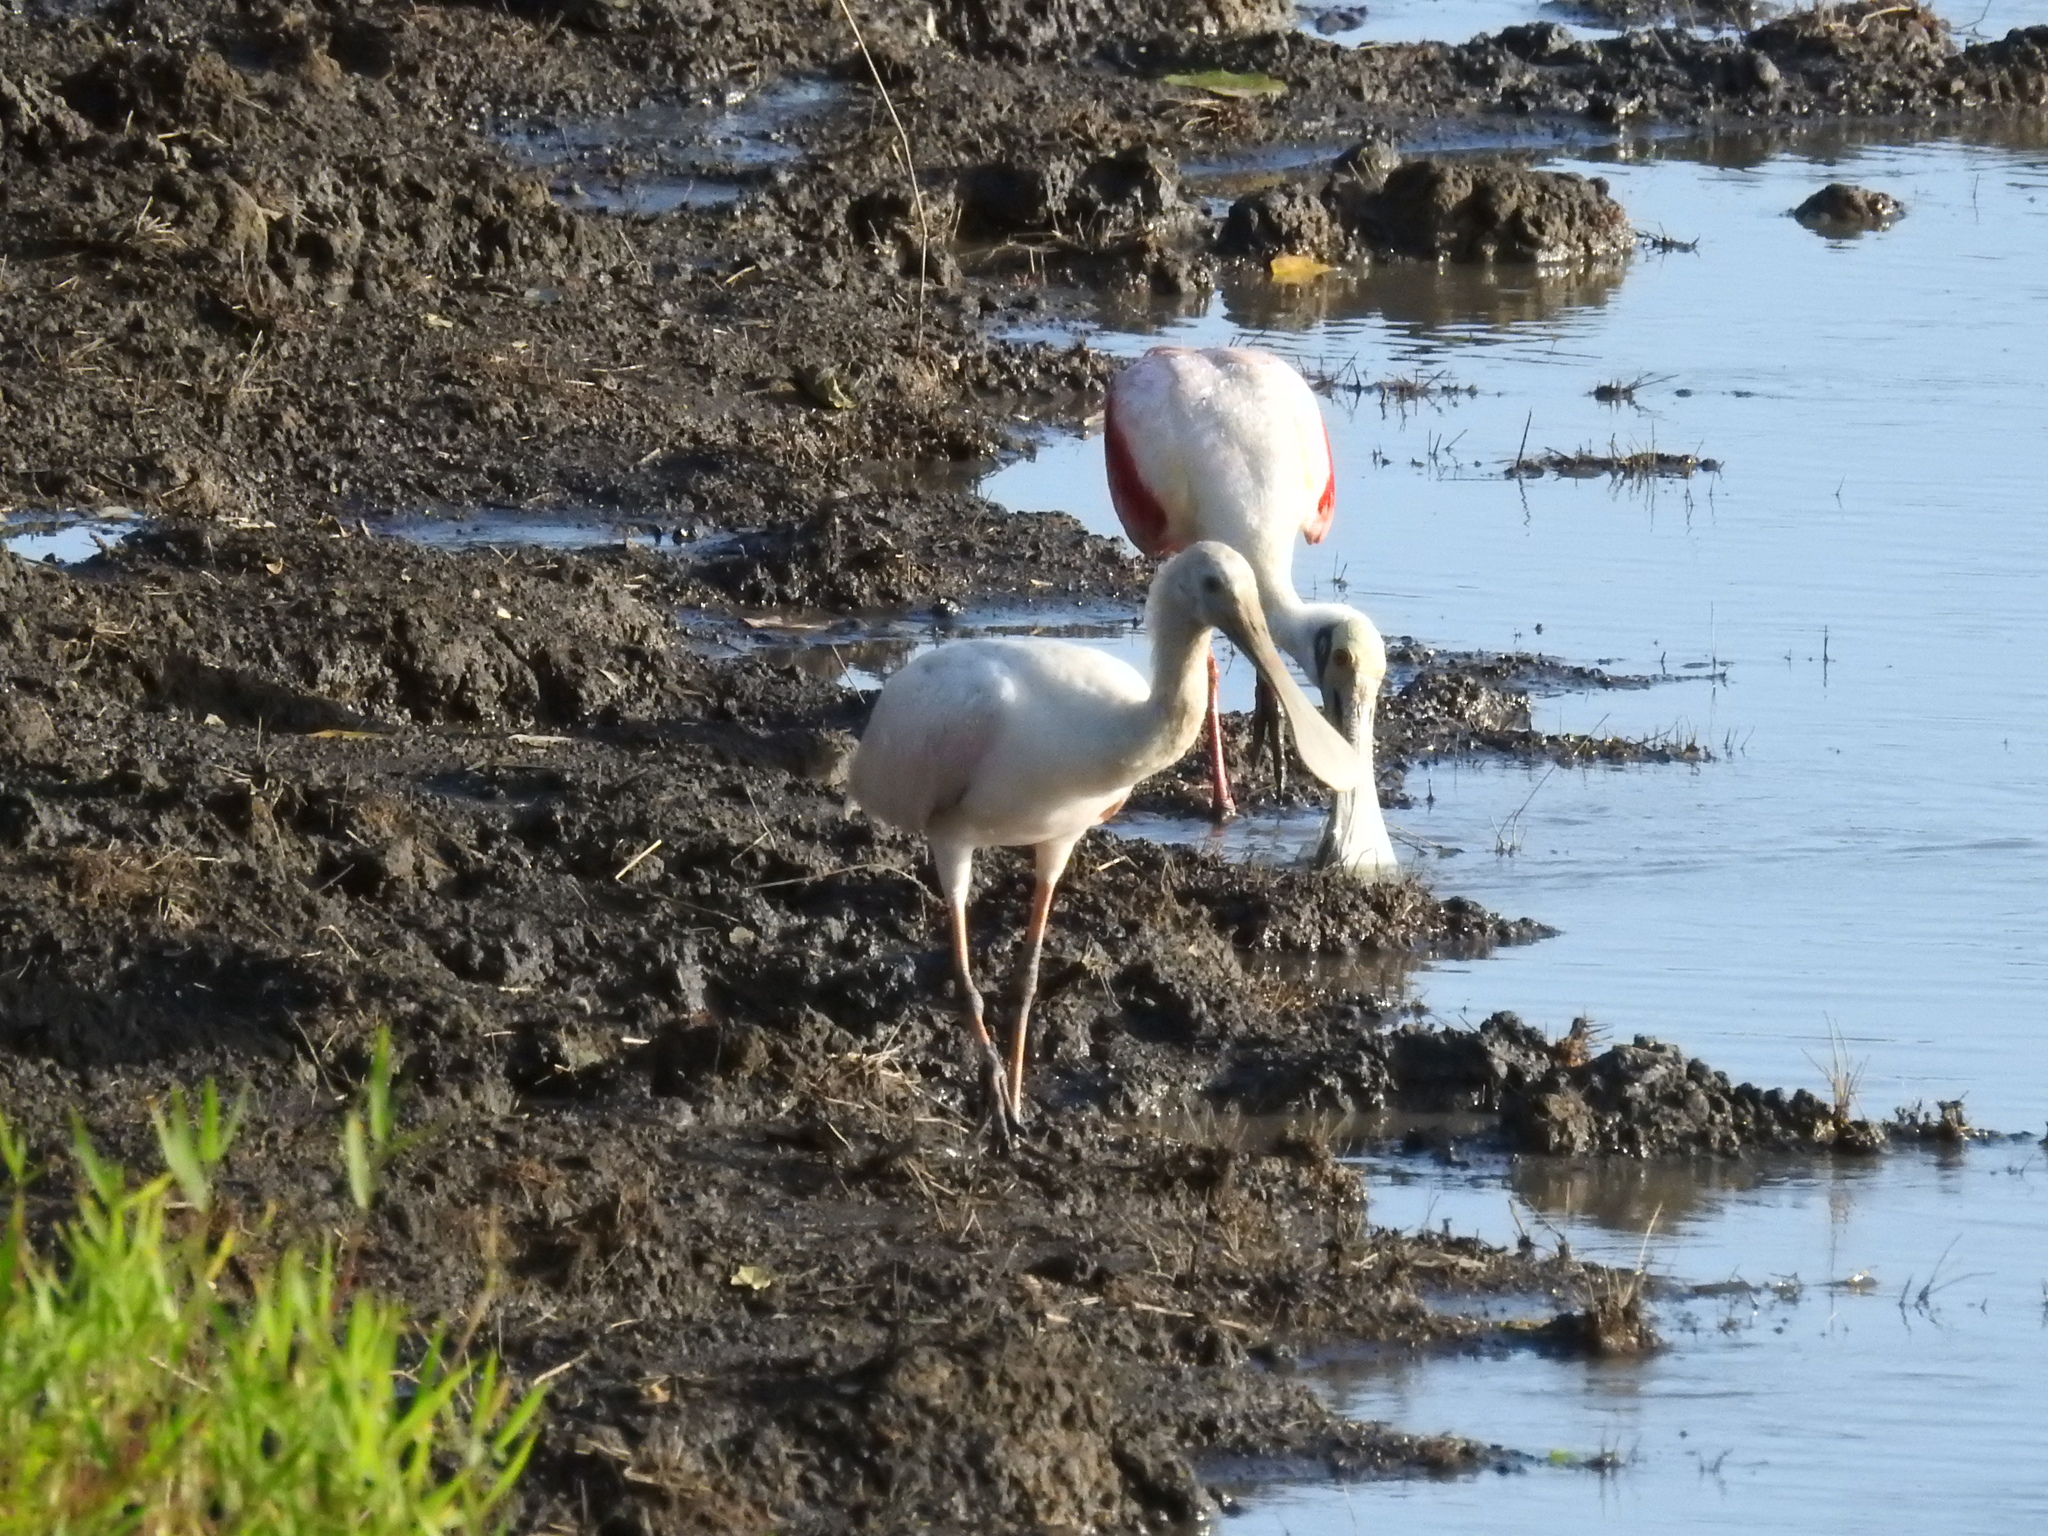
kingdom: Animalia
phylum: Chordata
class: Aves
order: Pelecaniformes
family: Threskiornithidae
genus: Platalea
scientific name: Platalea ajaja
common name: Roseate spoonbill
